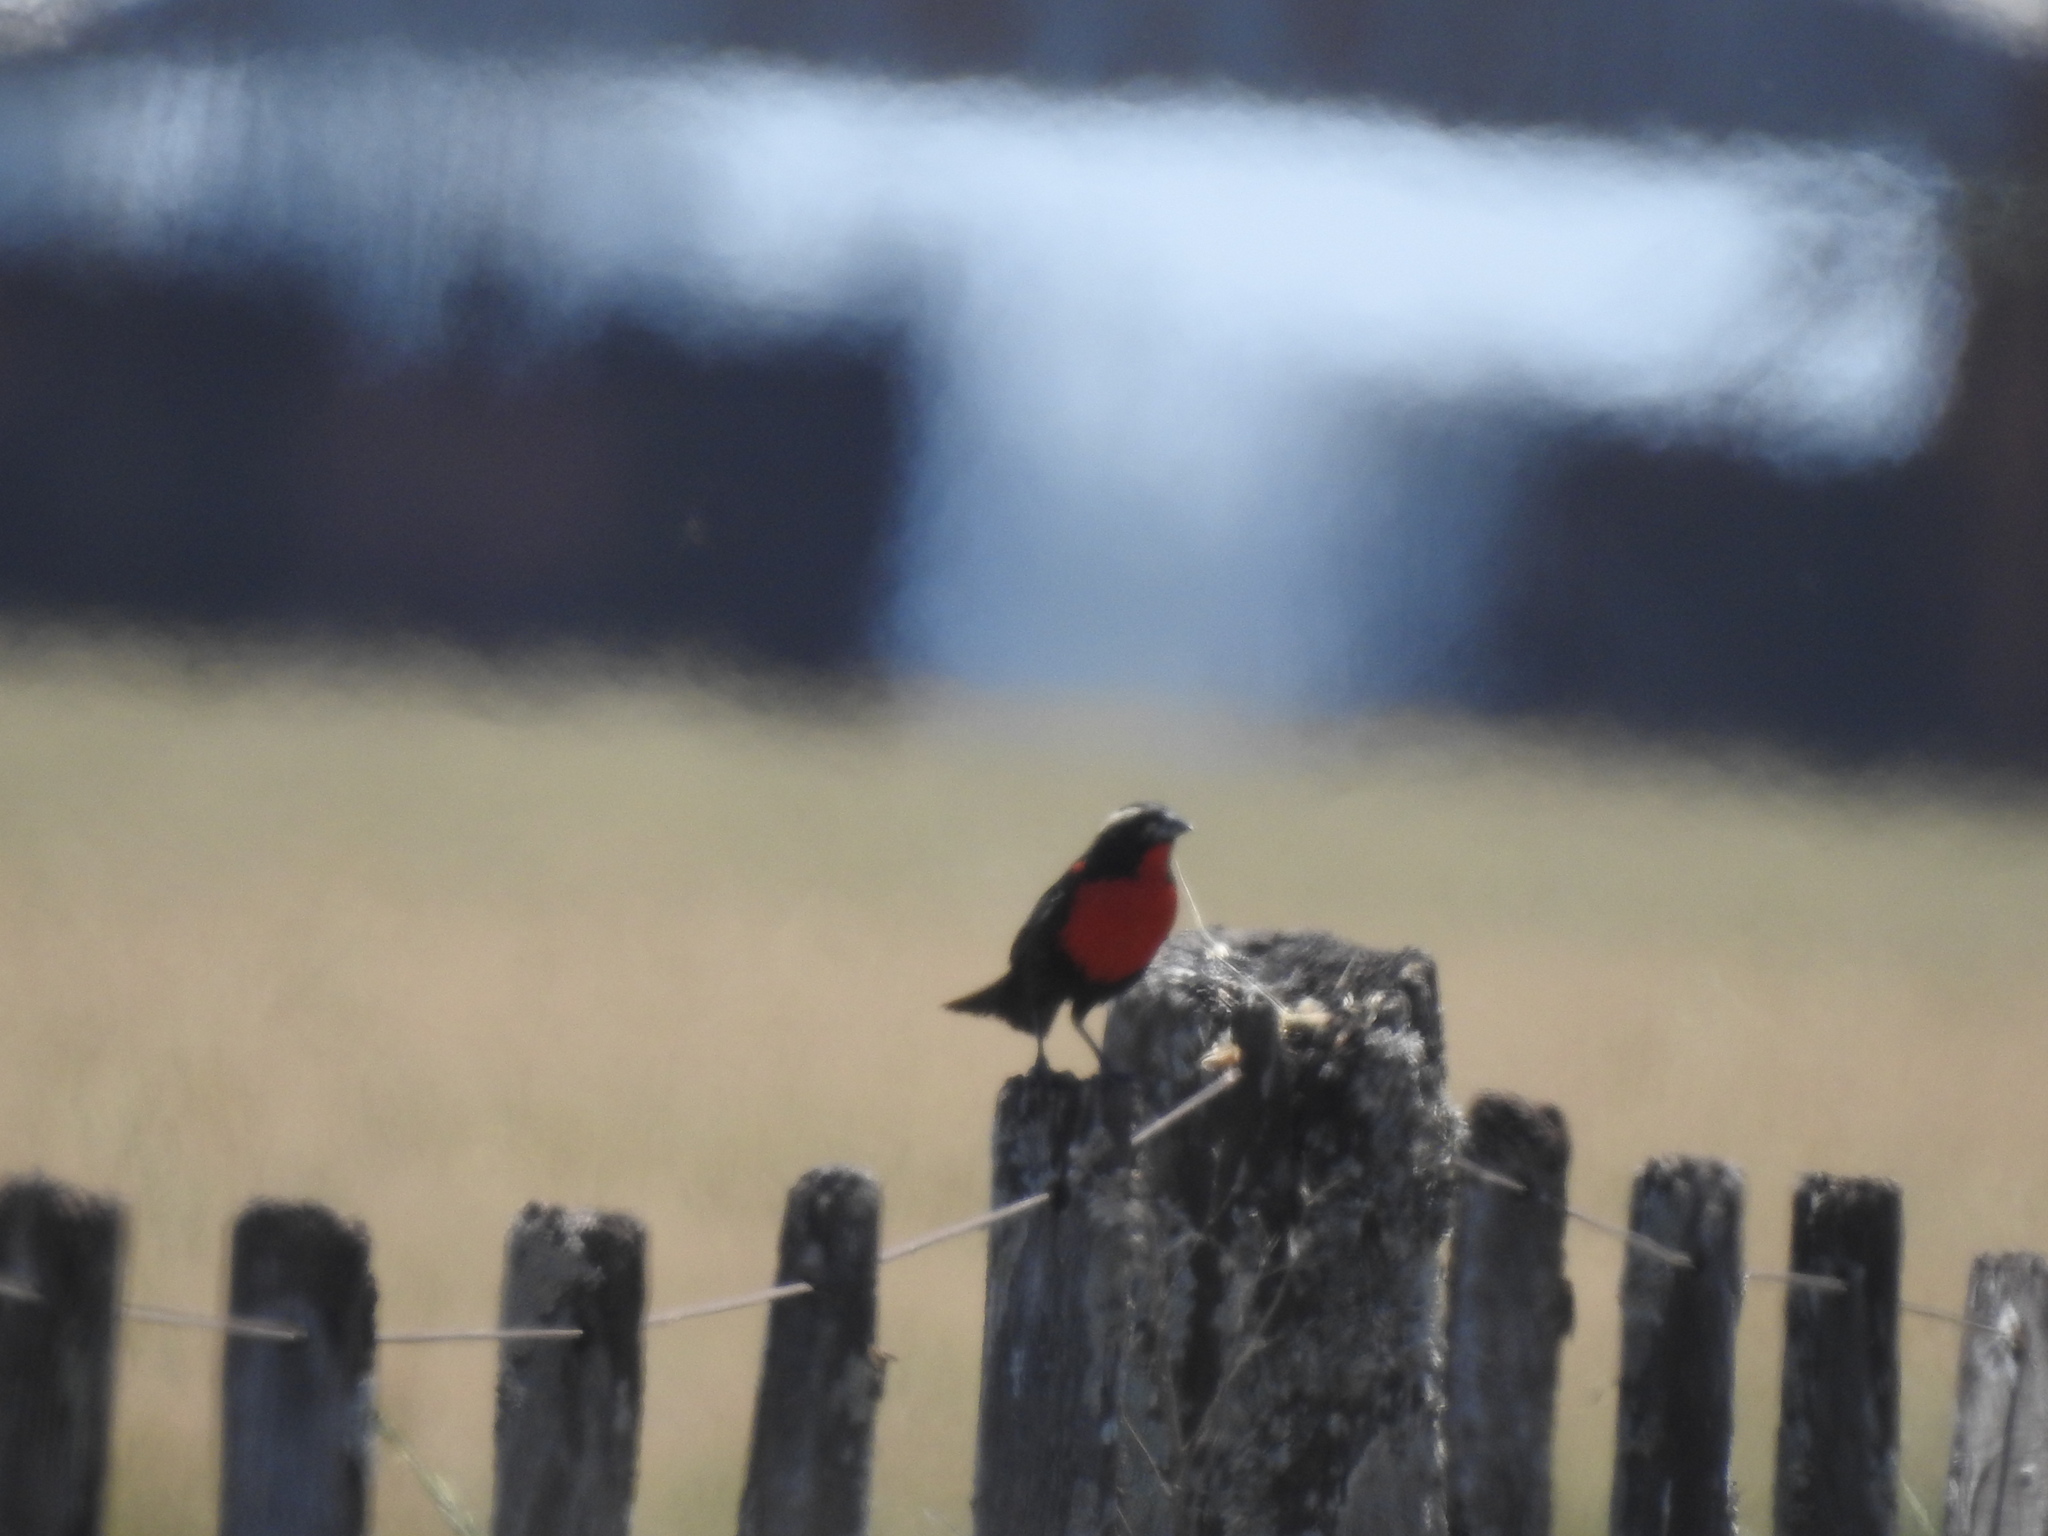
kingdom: Animalia
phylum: Chordata
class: Aves
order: Passeriformes
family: Icteridae
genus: Sturnella
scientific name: Sturnella superciliaris
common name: White-browed blackbird
